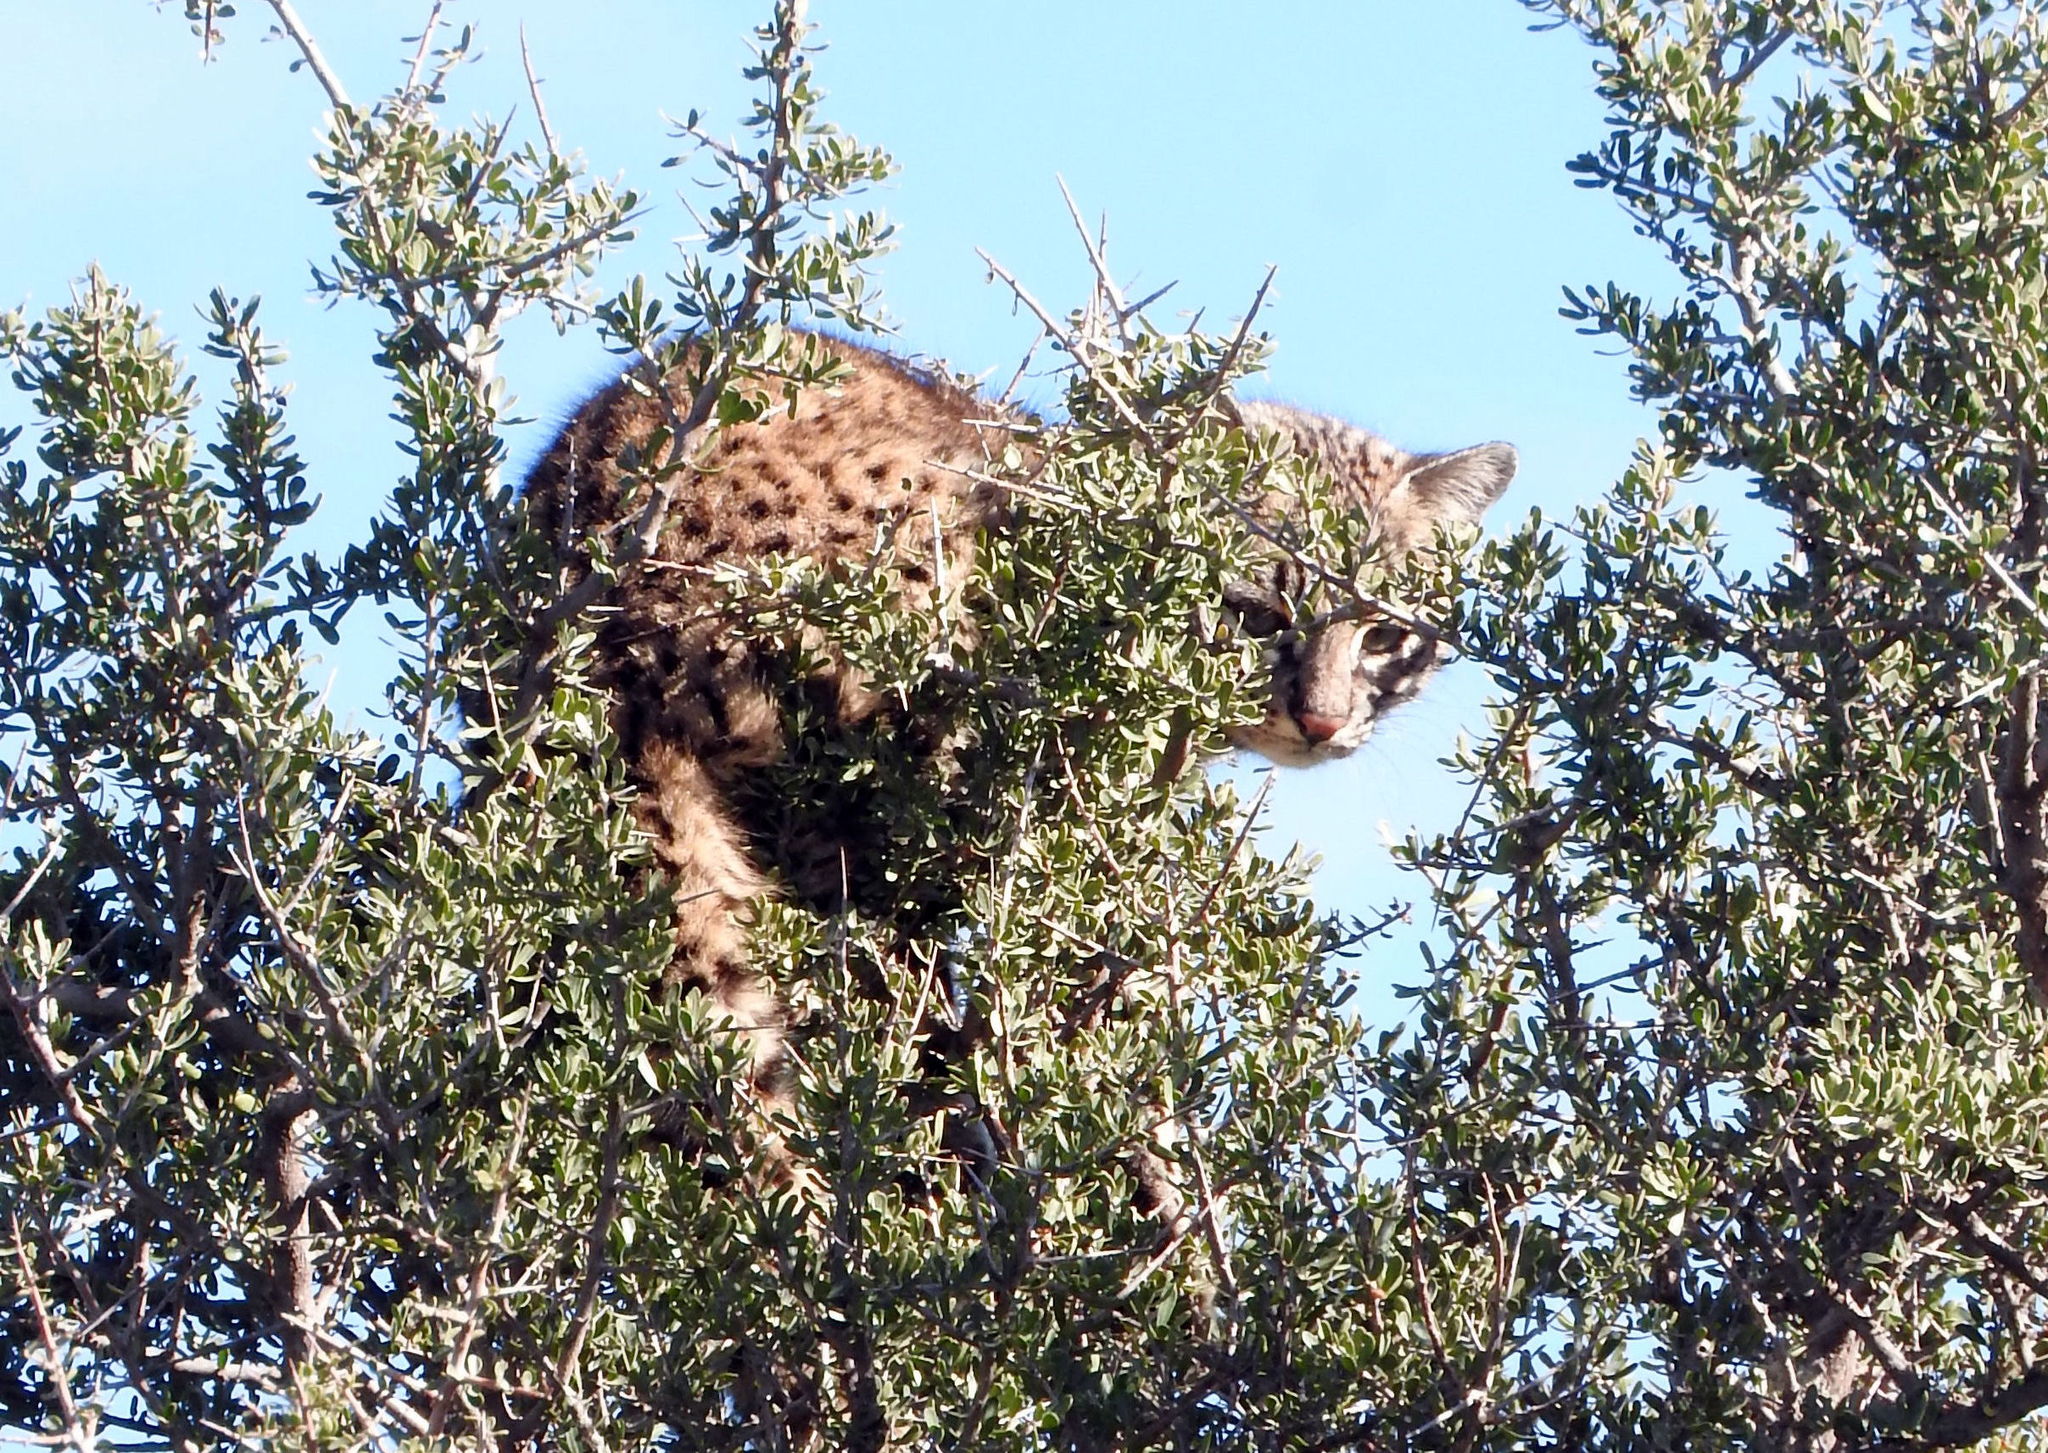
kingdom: Animalia
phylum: Chordata
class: Mammalia
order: Carnivora
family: Felidae
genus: Leopardus
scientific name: Leopardus geoffroyi
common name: Geoffroy's cat
